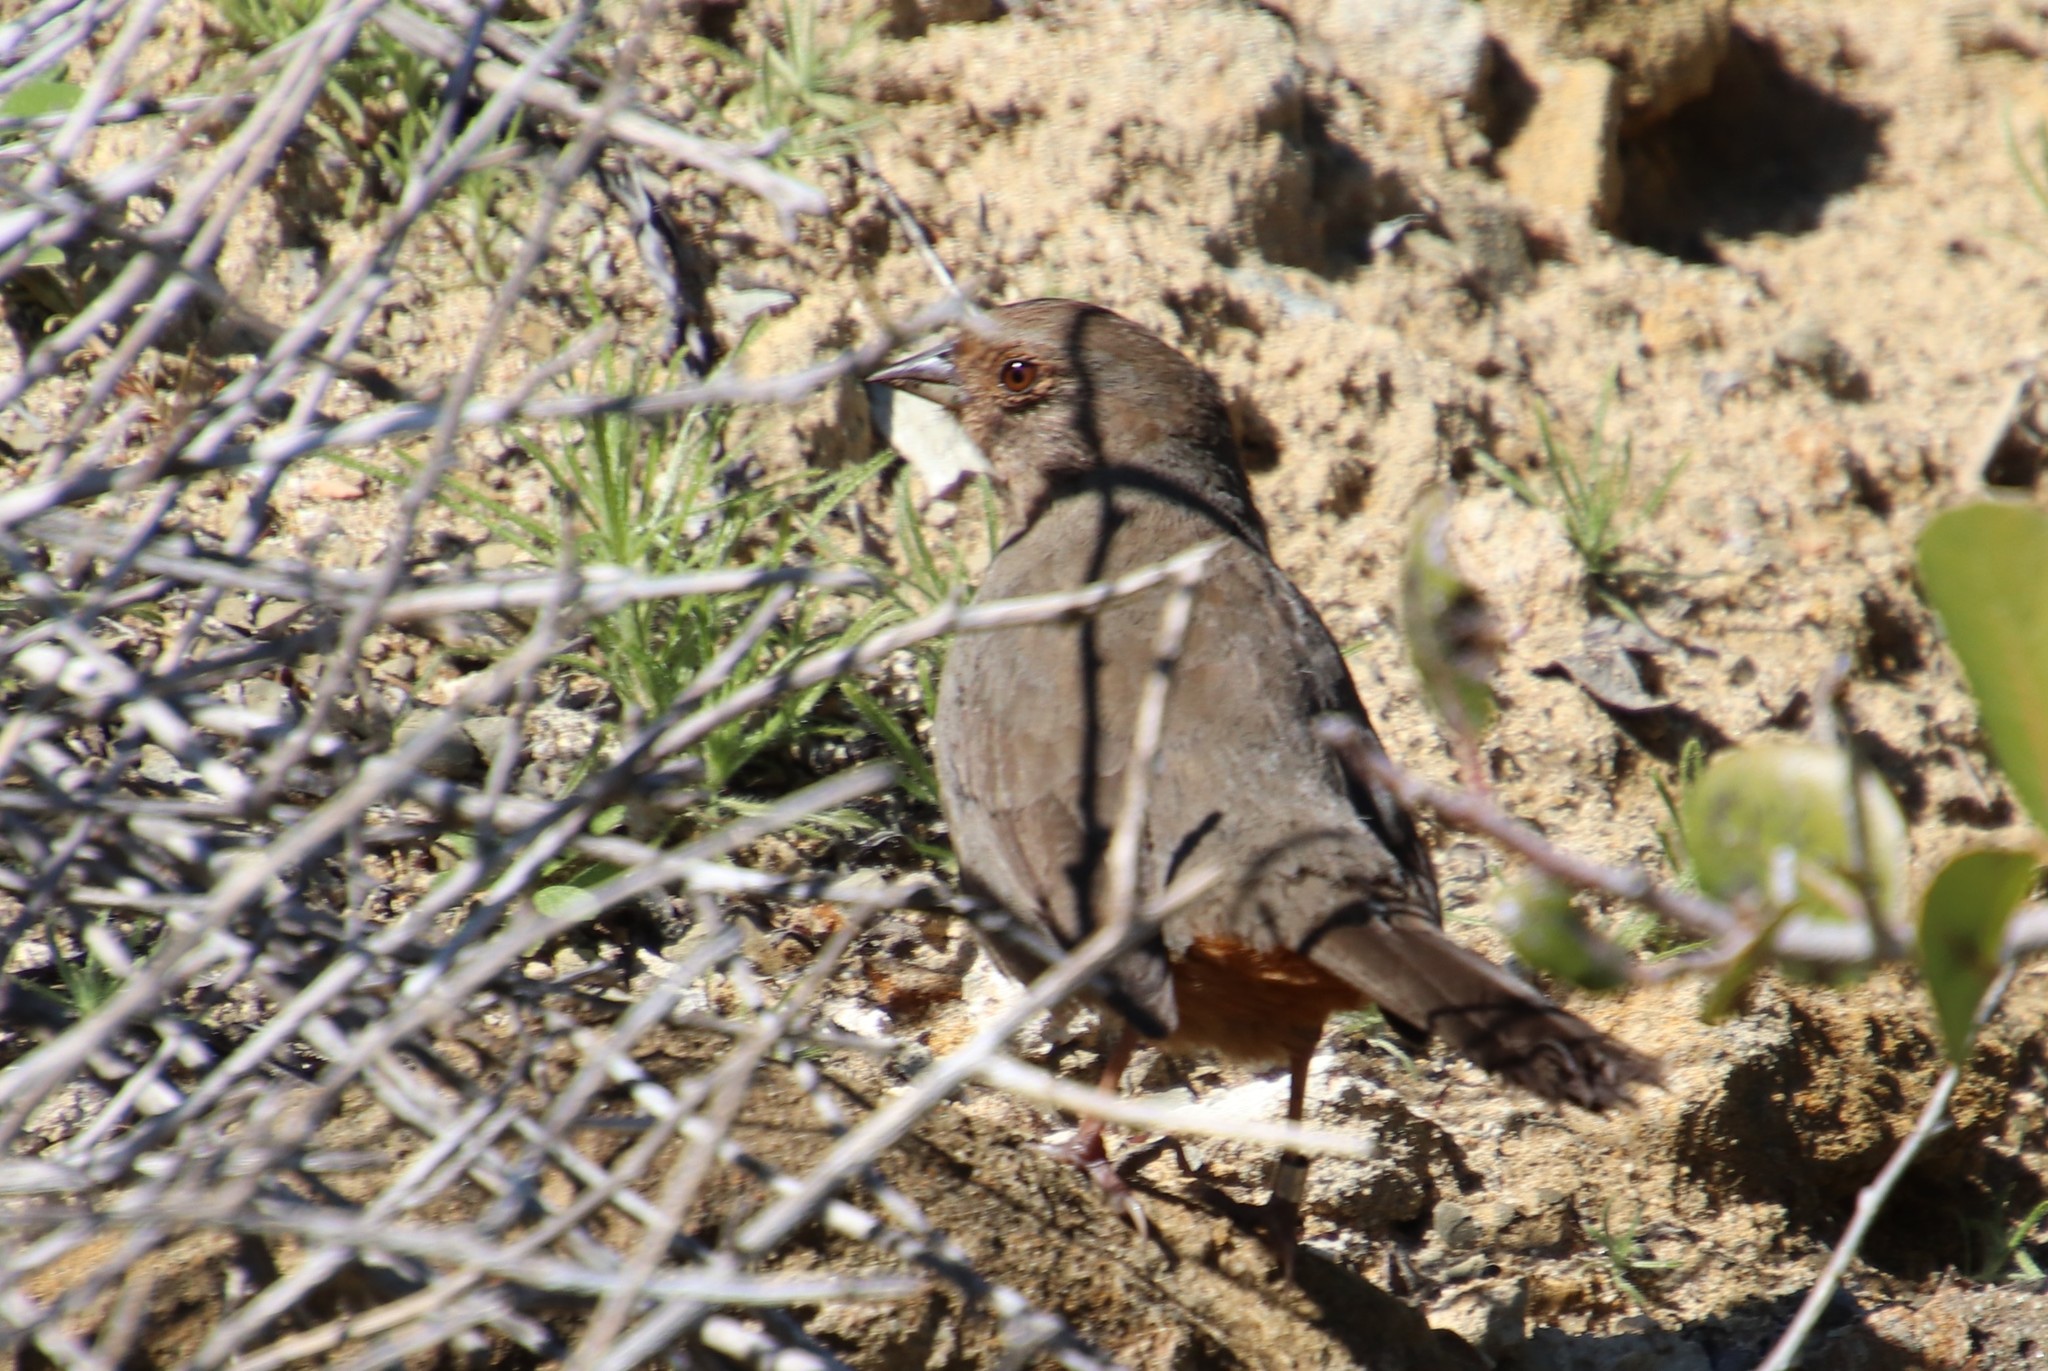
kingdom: Animalia
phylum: Chordata
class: Aves
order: Passeriformes
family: Passerellidae
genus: Melozone
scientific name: Melozone crissalis
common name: California towhee
